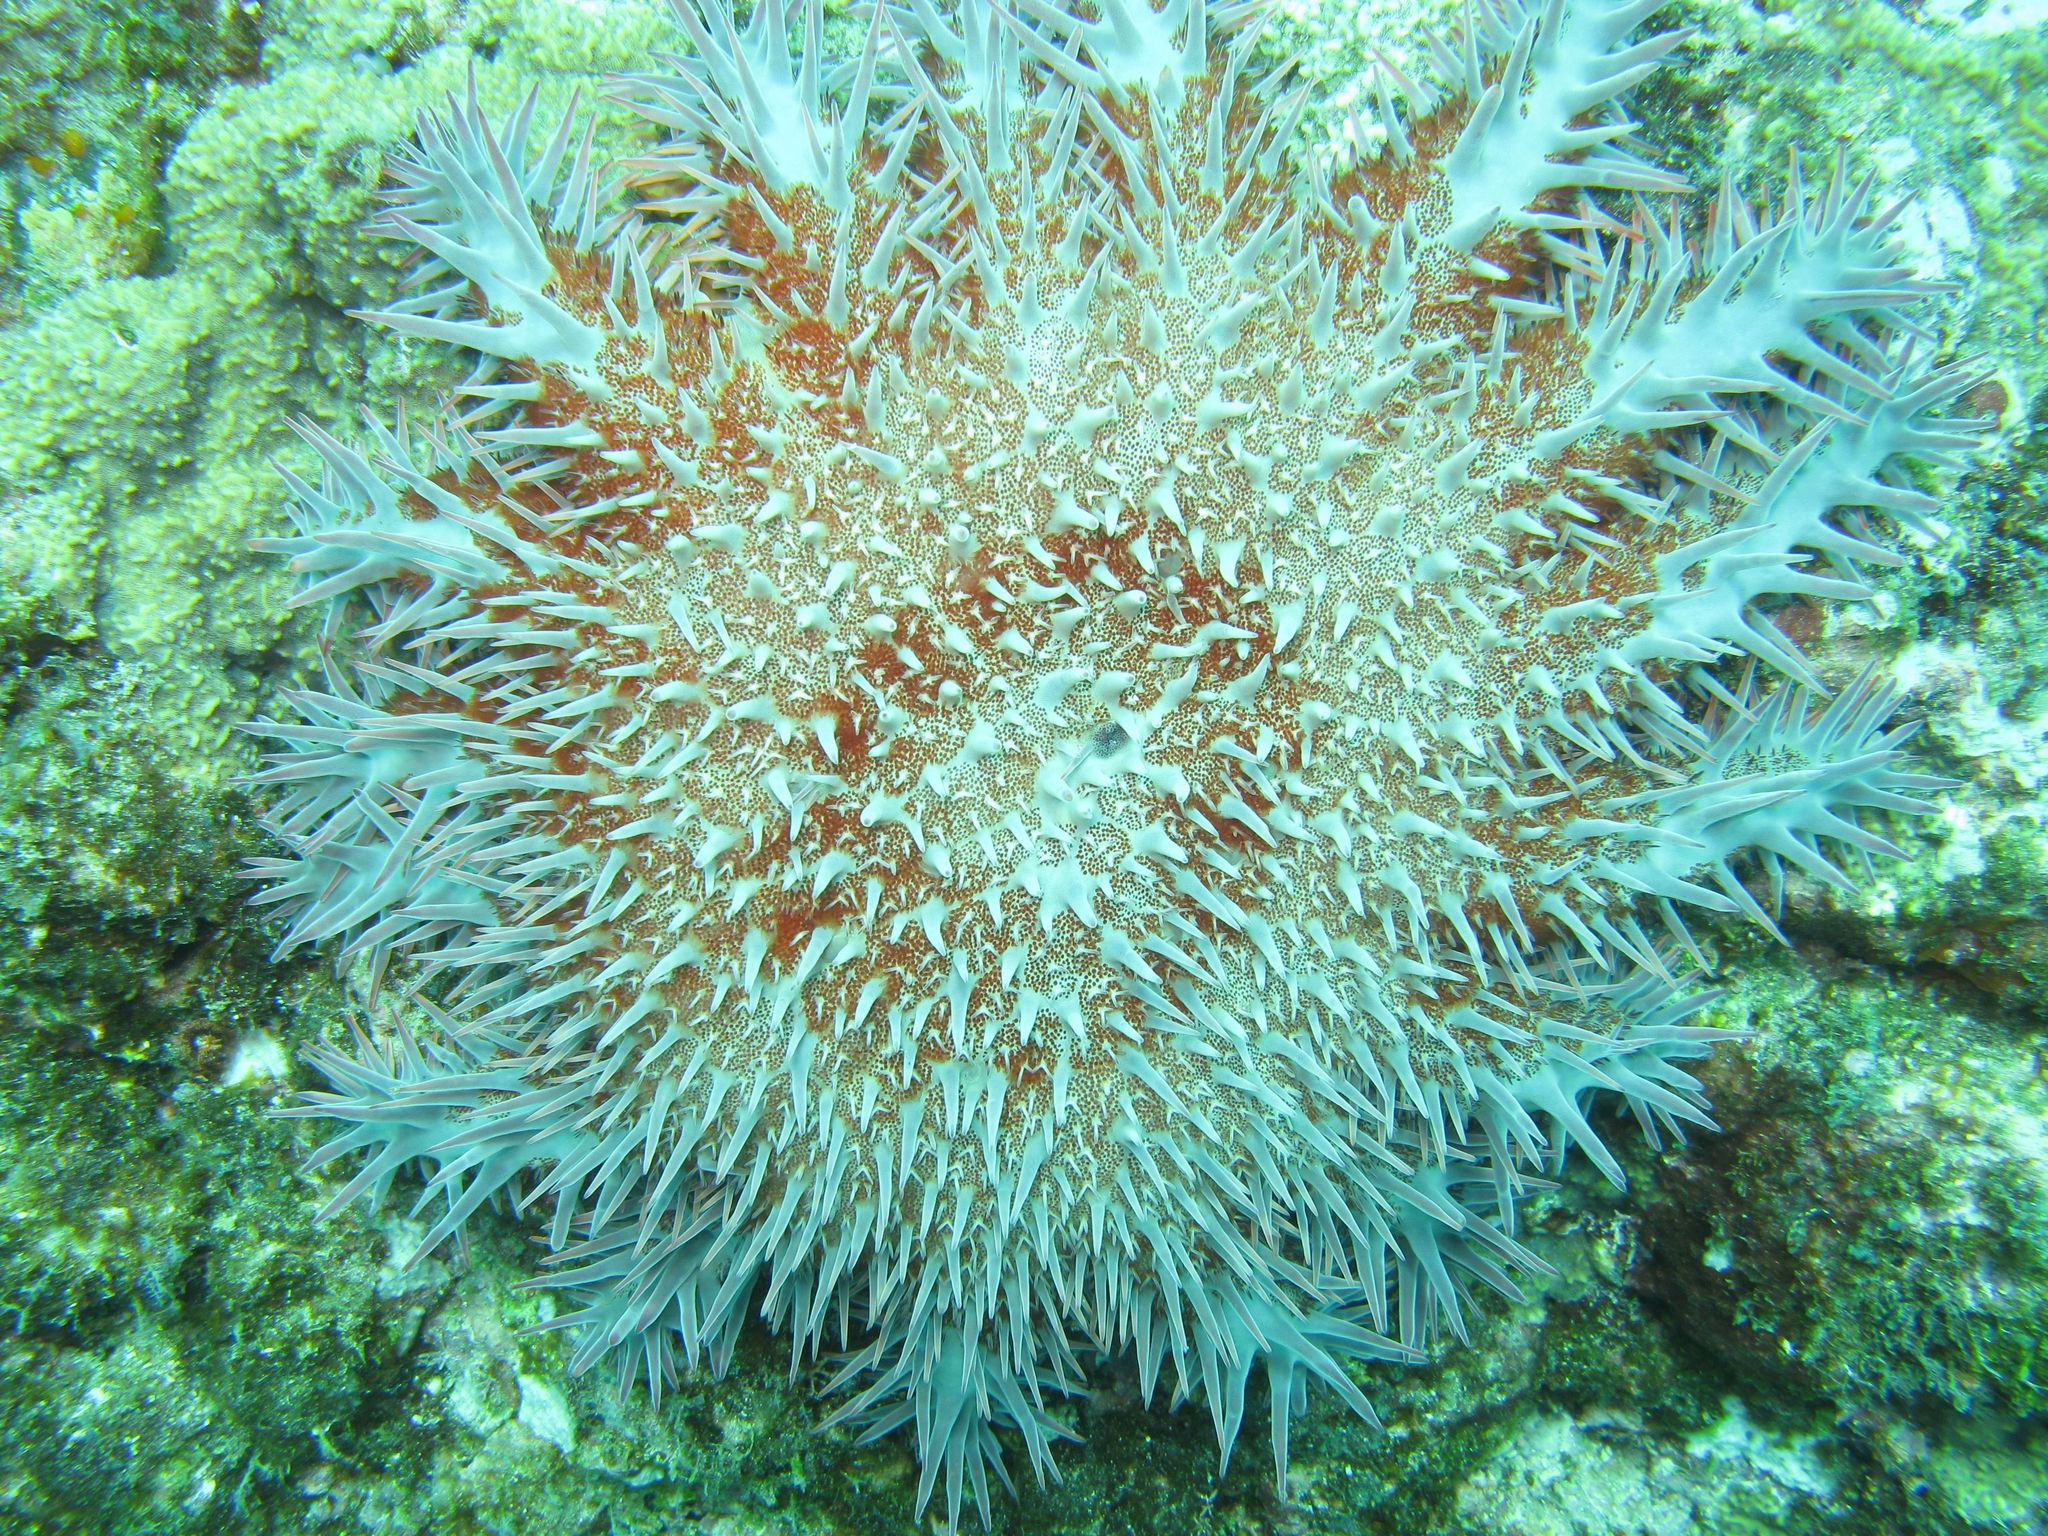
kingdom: Animalia
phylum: Echinodermata
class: Asteroidea
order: Valvatida
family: Acanthasteridae
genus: Acanthaster
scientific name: Acanthaster planci
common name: Crown-of-thorns
